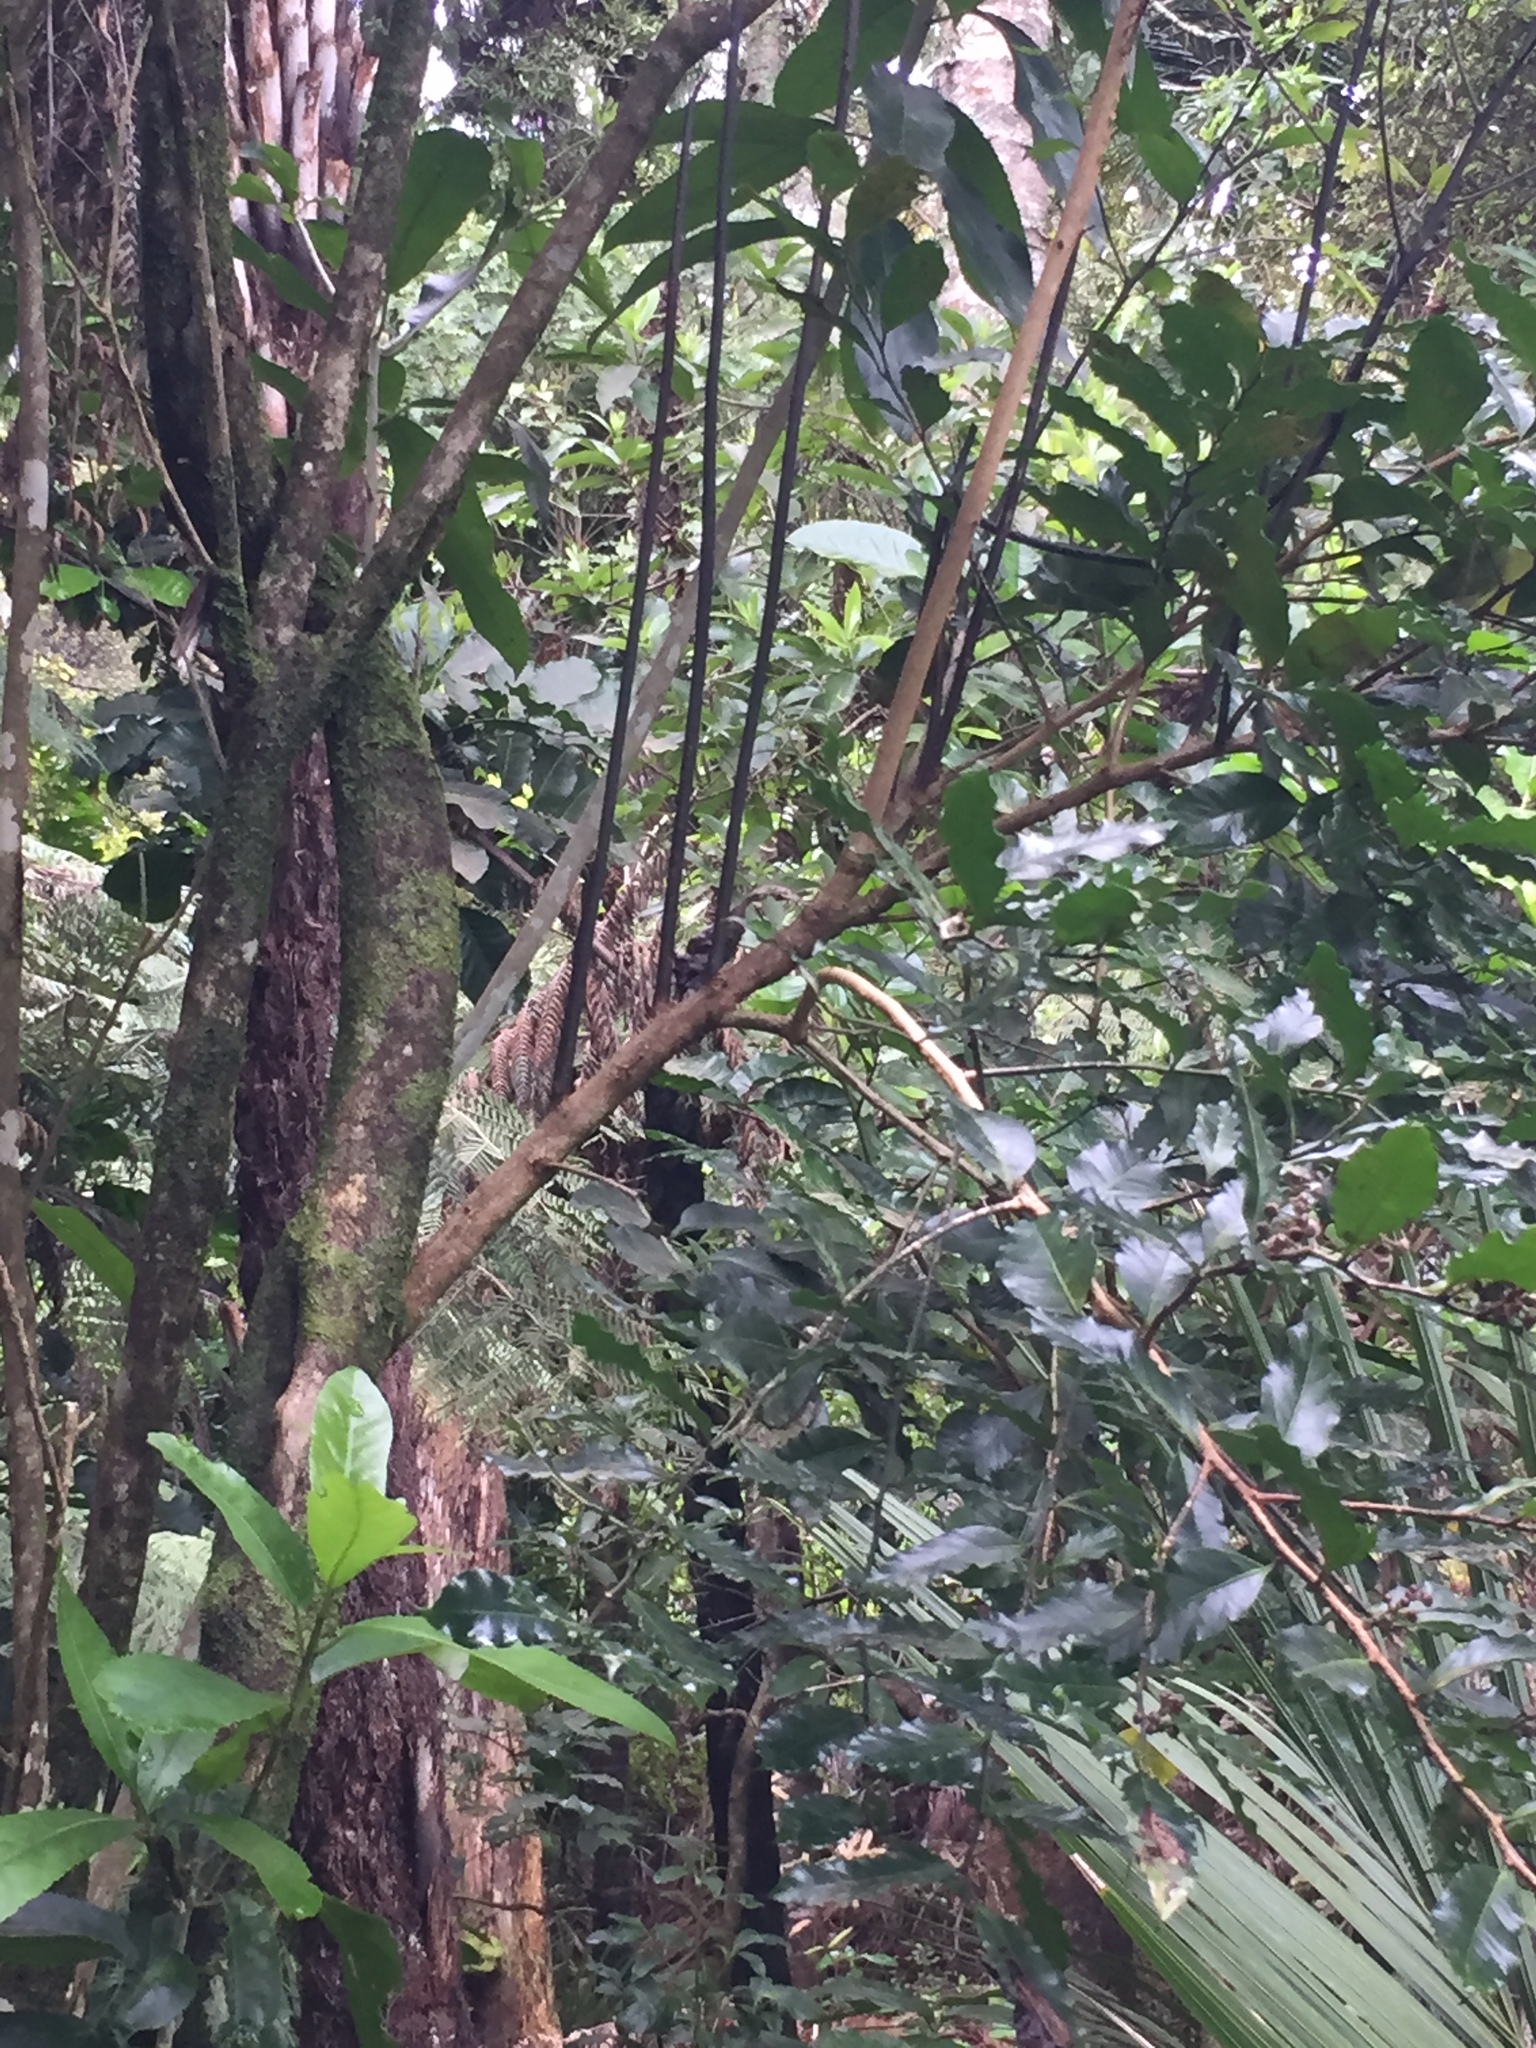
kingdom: Plantae
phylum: Tracheophyta
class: Magnoliopsida
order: Santalales
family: Nanodeaceae
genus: Mida
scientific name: Mida salicifolia
